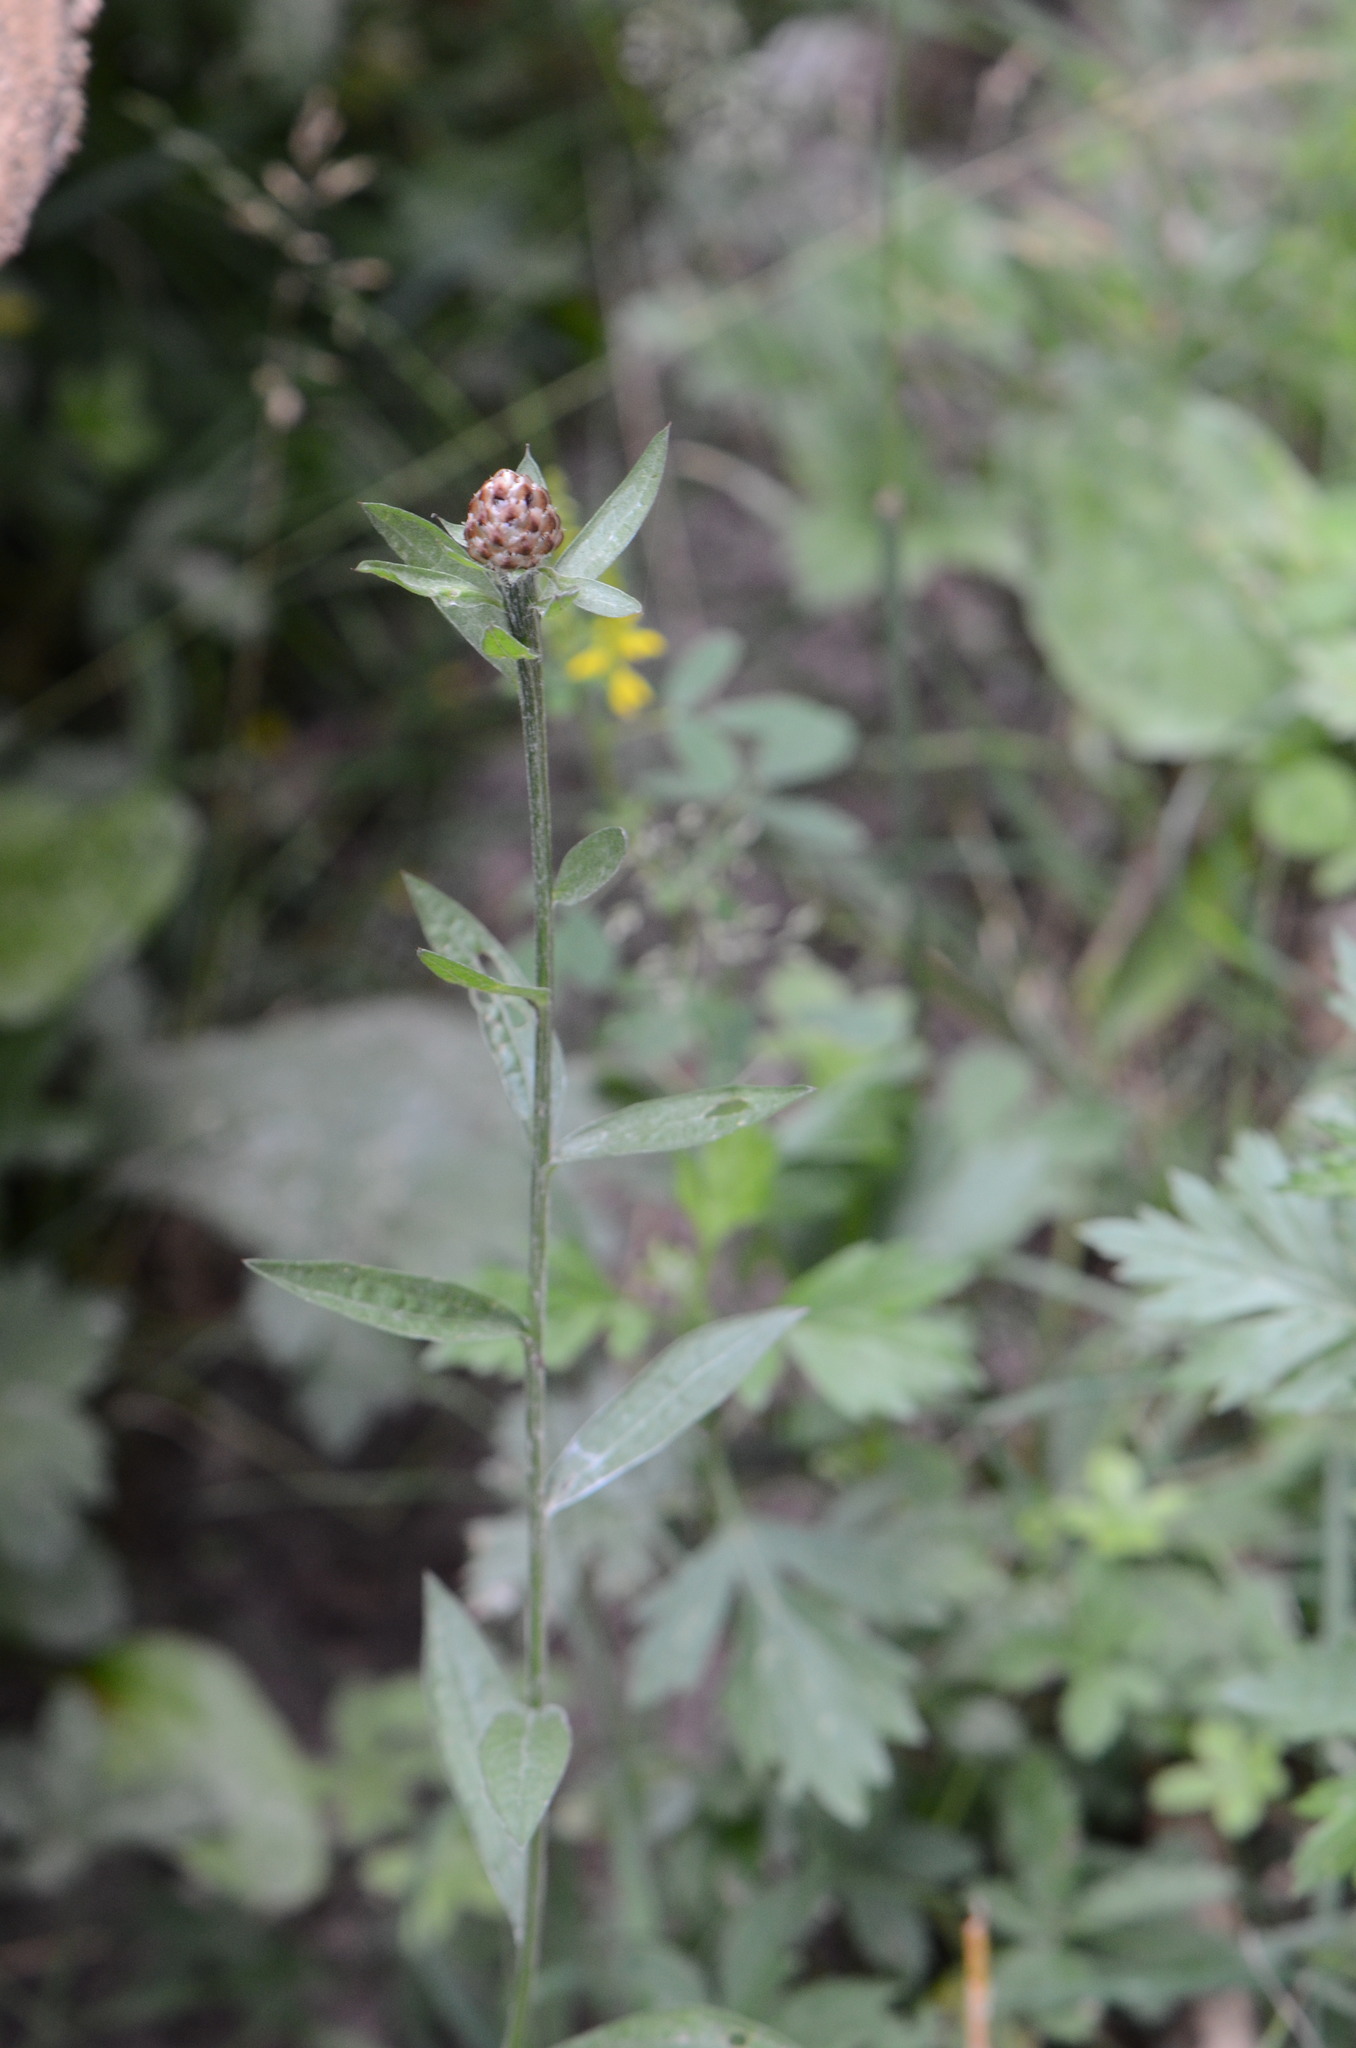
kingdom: Plantae
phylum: Tracheophyta
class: Magnoliopsida
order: Asterales
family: Asteraceae
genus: Centaurea
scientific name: Centaurea jacea
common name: Brown knapweed
